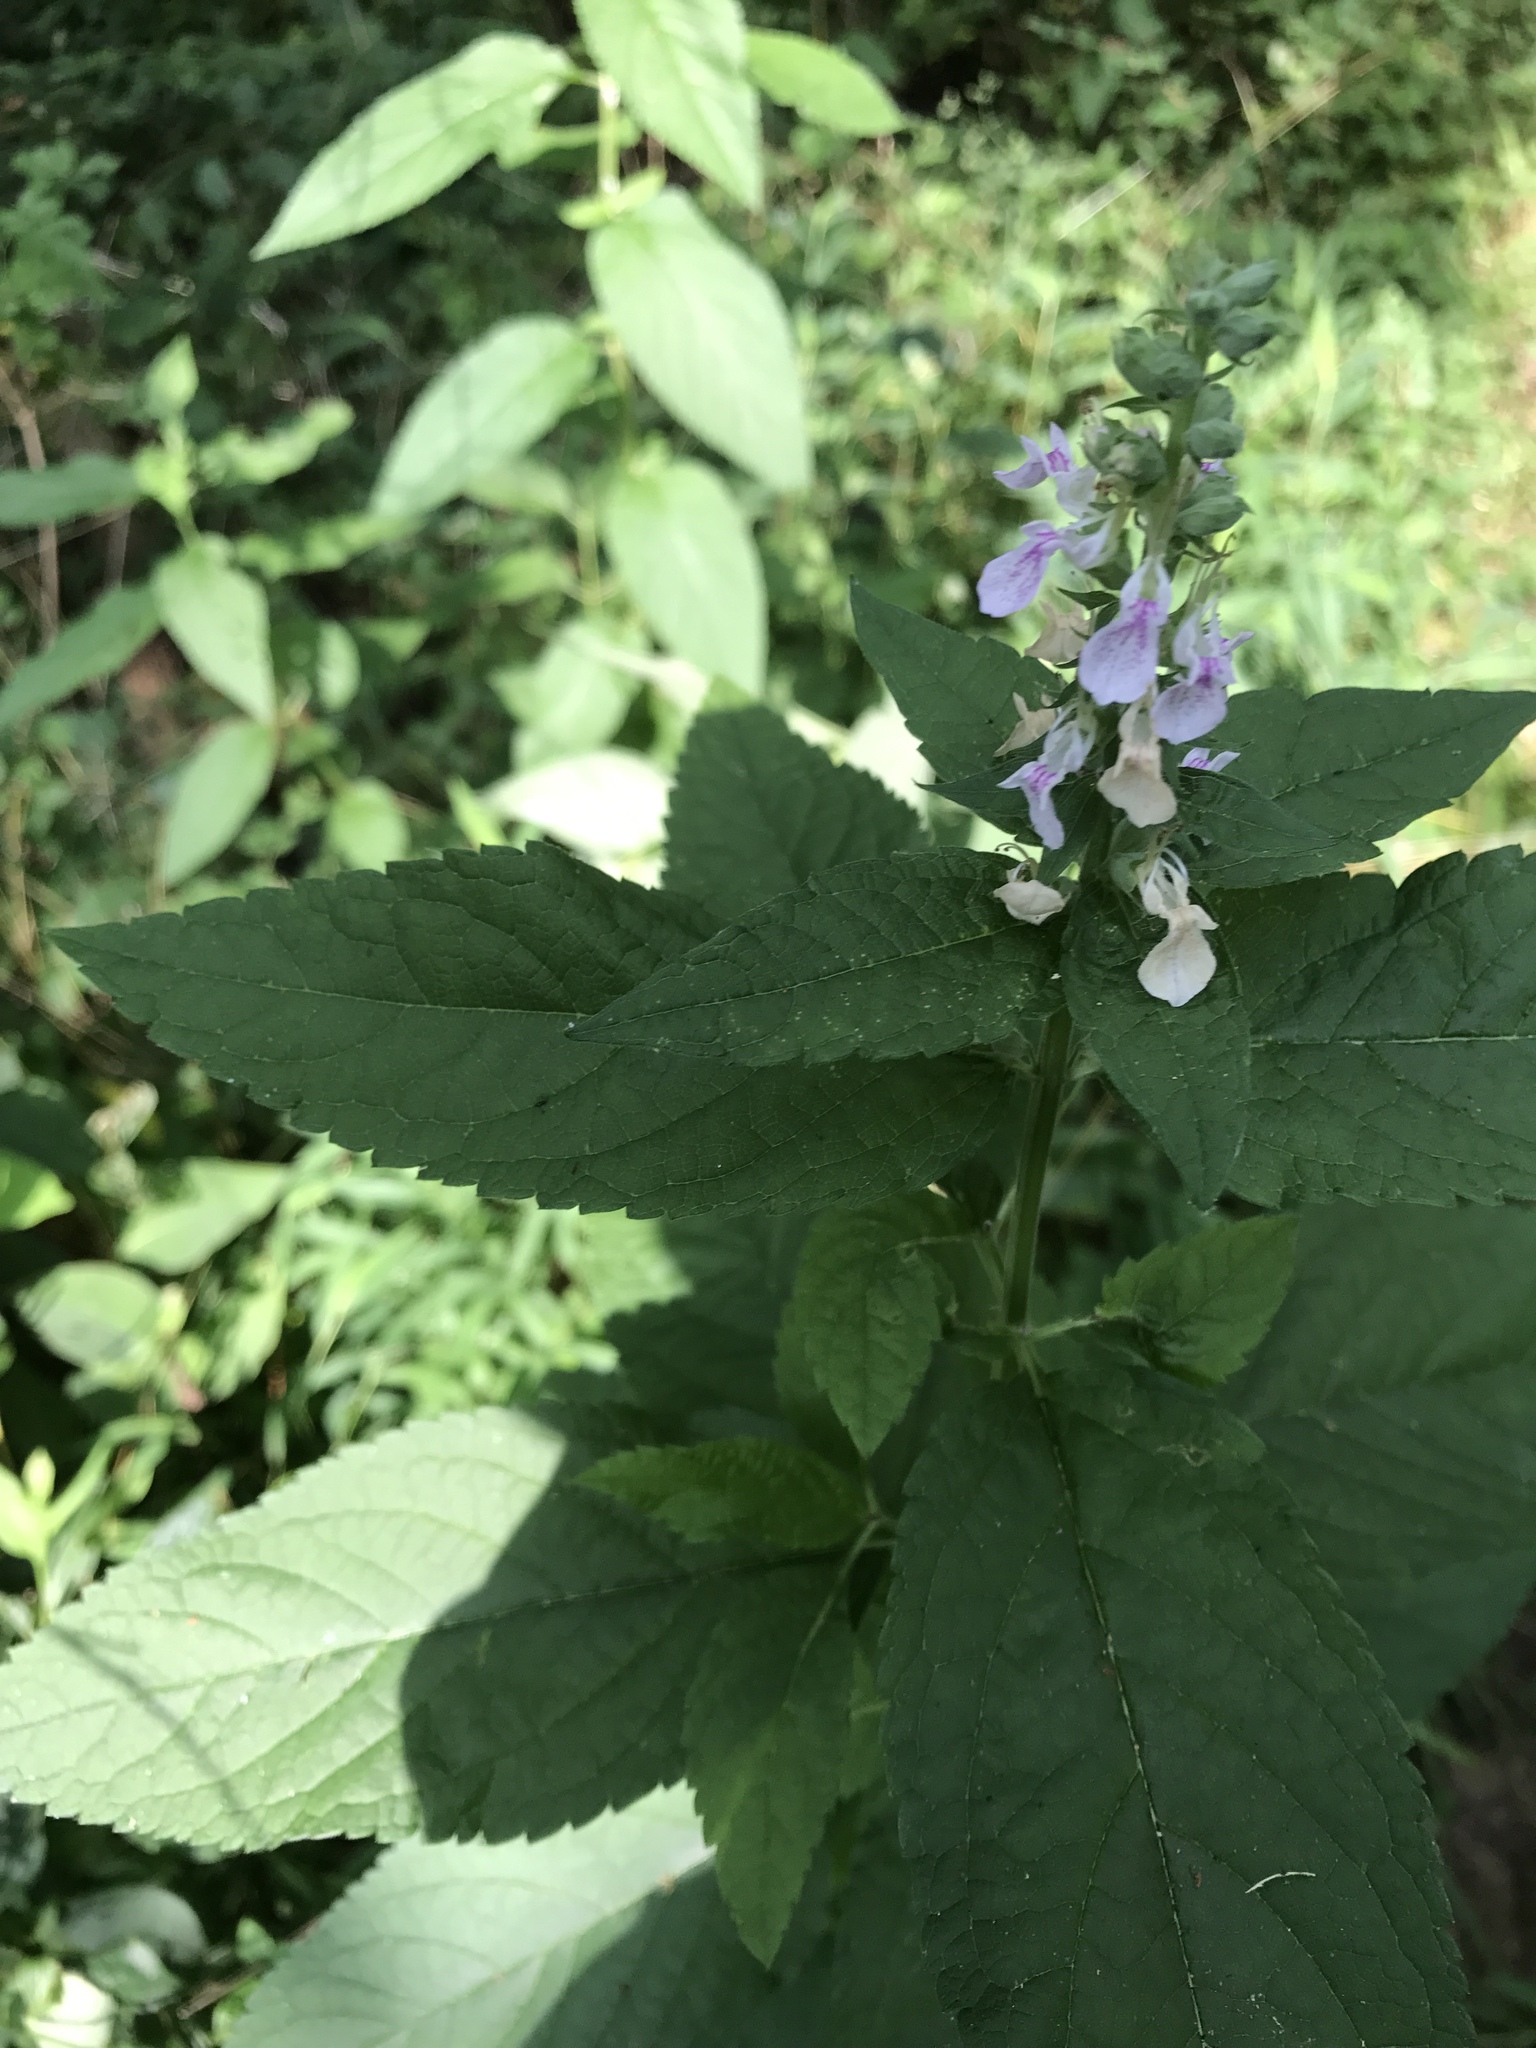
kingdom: Plantae
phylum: Tracheophyta
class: Magnoliopsida
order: Lamiales
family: Lamiaceae
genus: Teucrium
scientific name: Teucrium canadense
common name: American germander
